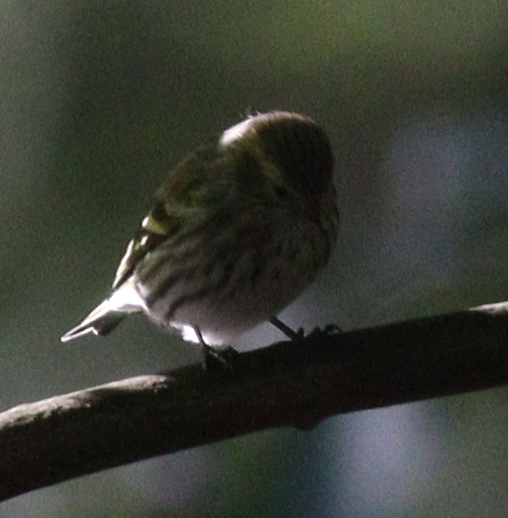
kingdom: Animalia
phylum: Chordata
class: Aves
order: Passeriformes
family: Fringillidae
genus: Spinus
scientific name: Spinus spinus
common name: Eurasian siskin
